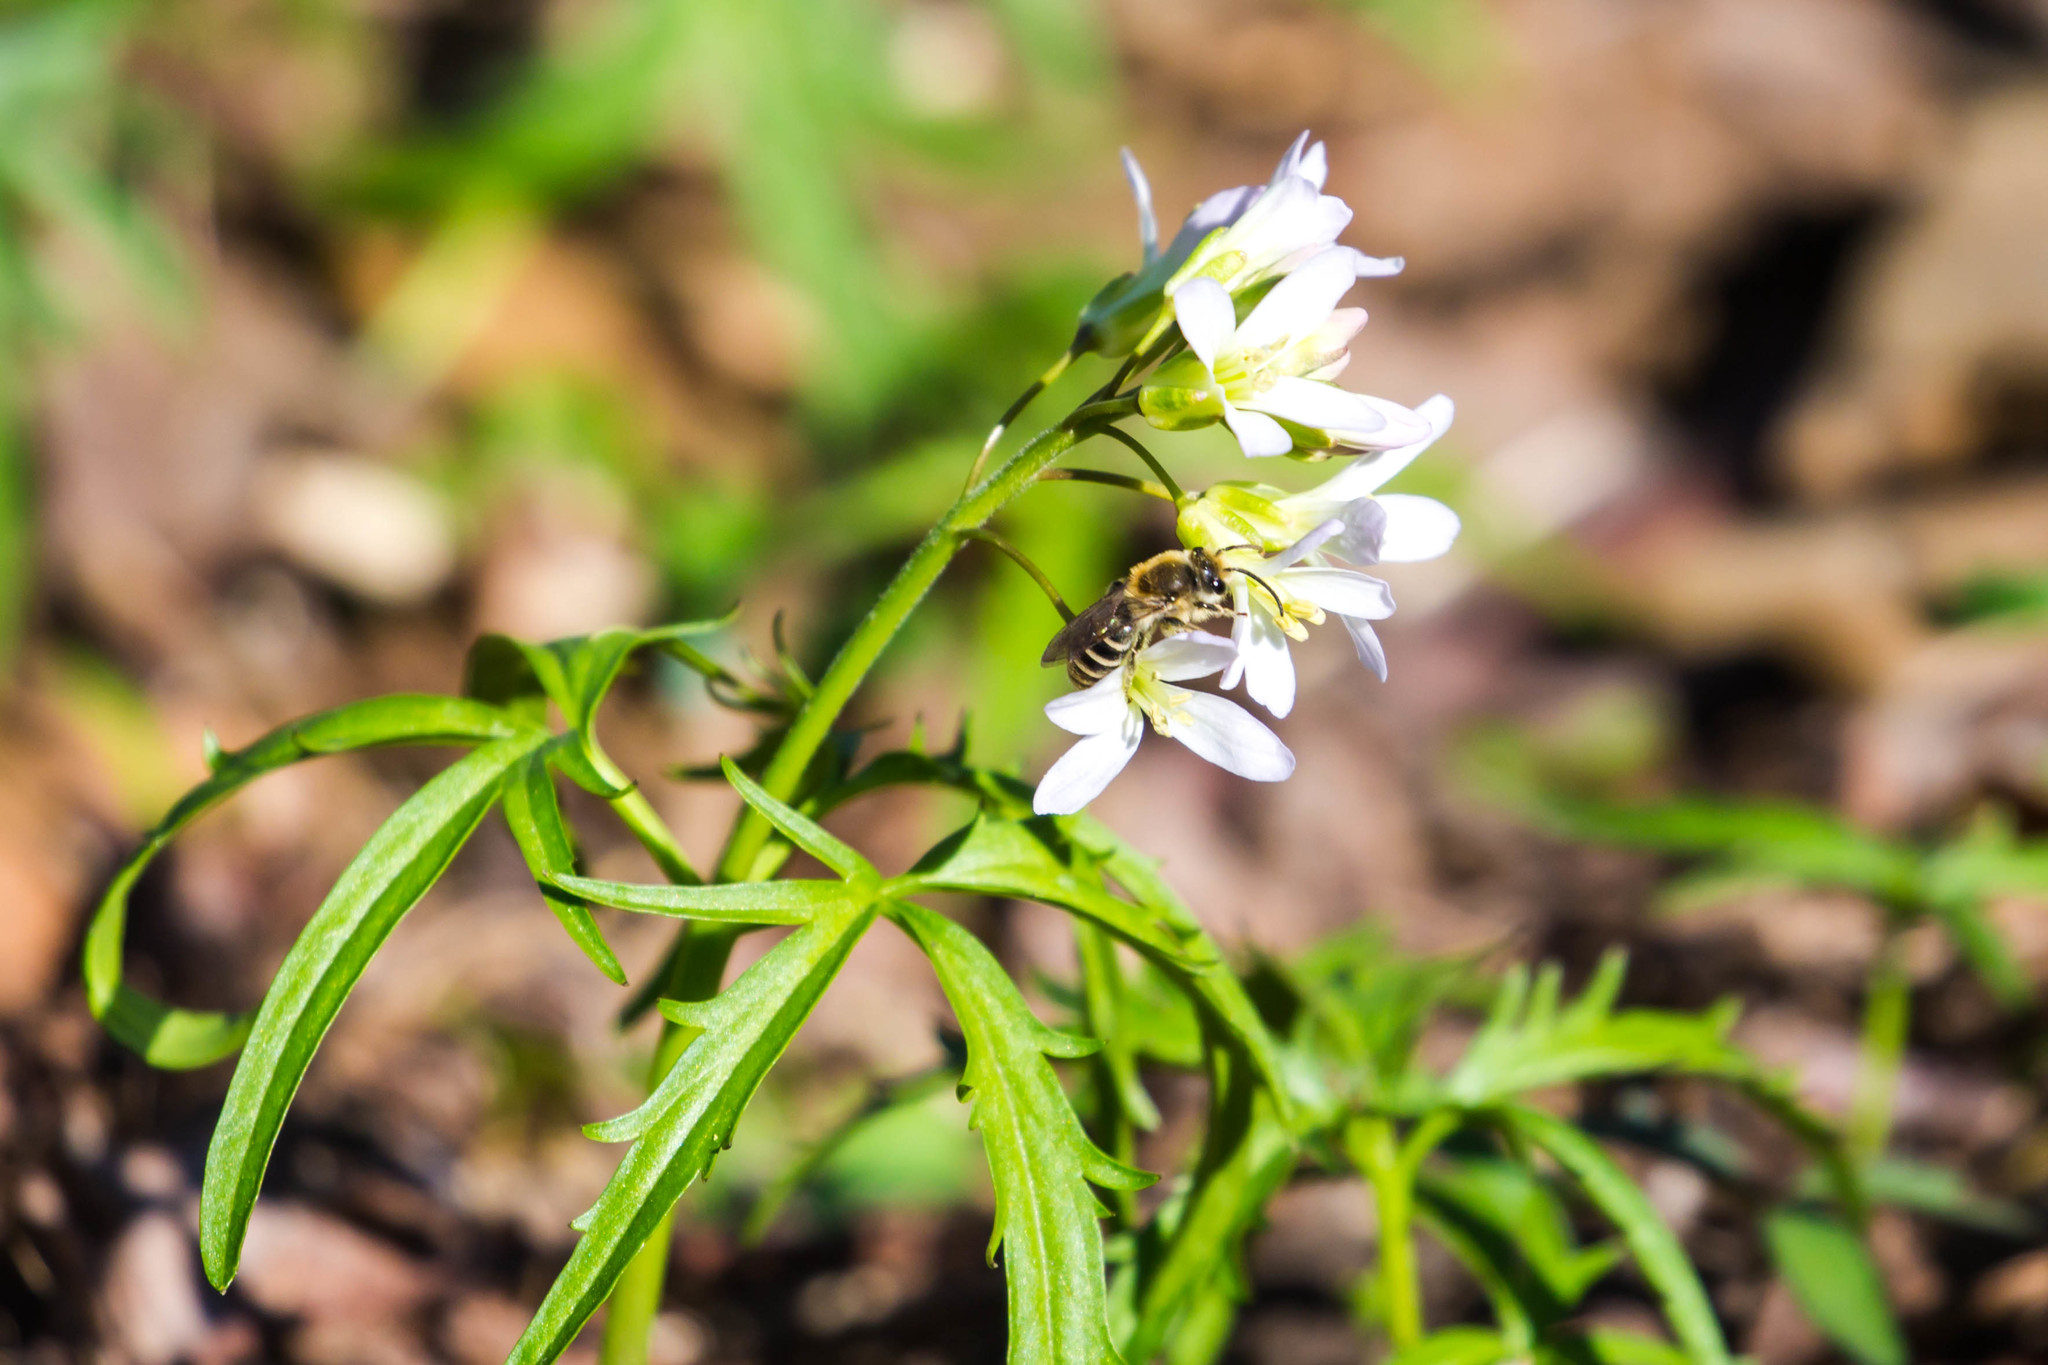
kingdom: Animalia
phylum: Arthropoda
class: Insecta
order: Hymenoptera
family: Colletidae
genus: Colletes
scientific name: Colletes inaequalis
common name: Unequal cellophane bee
